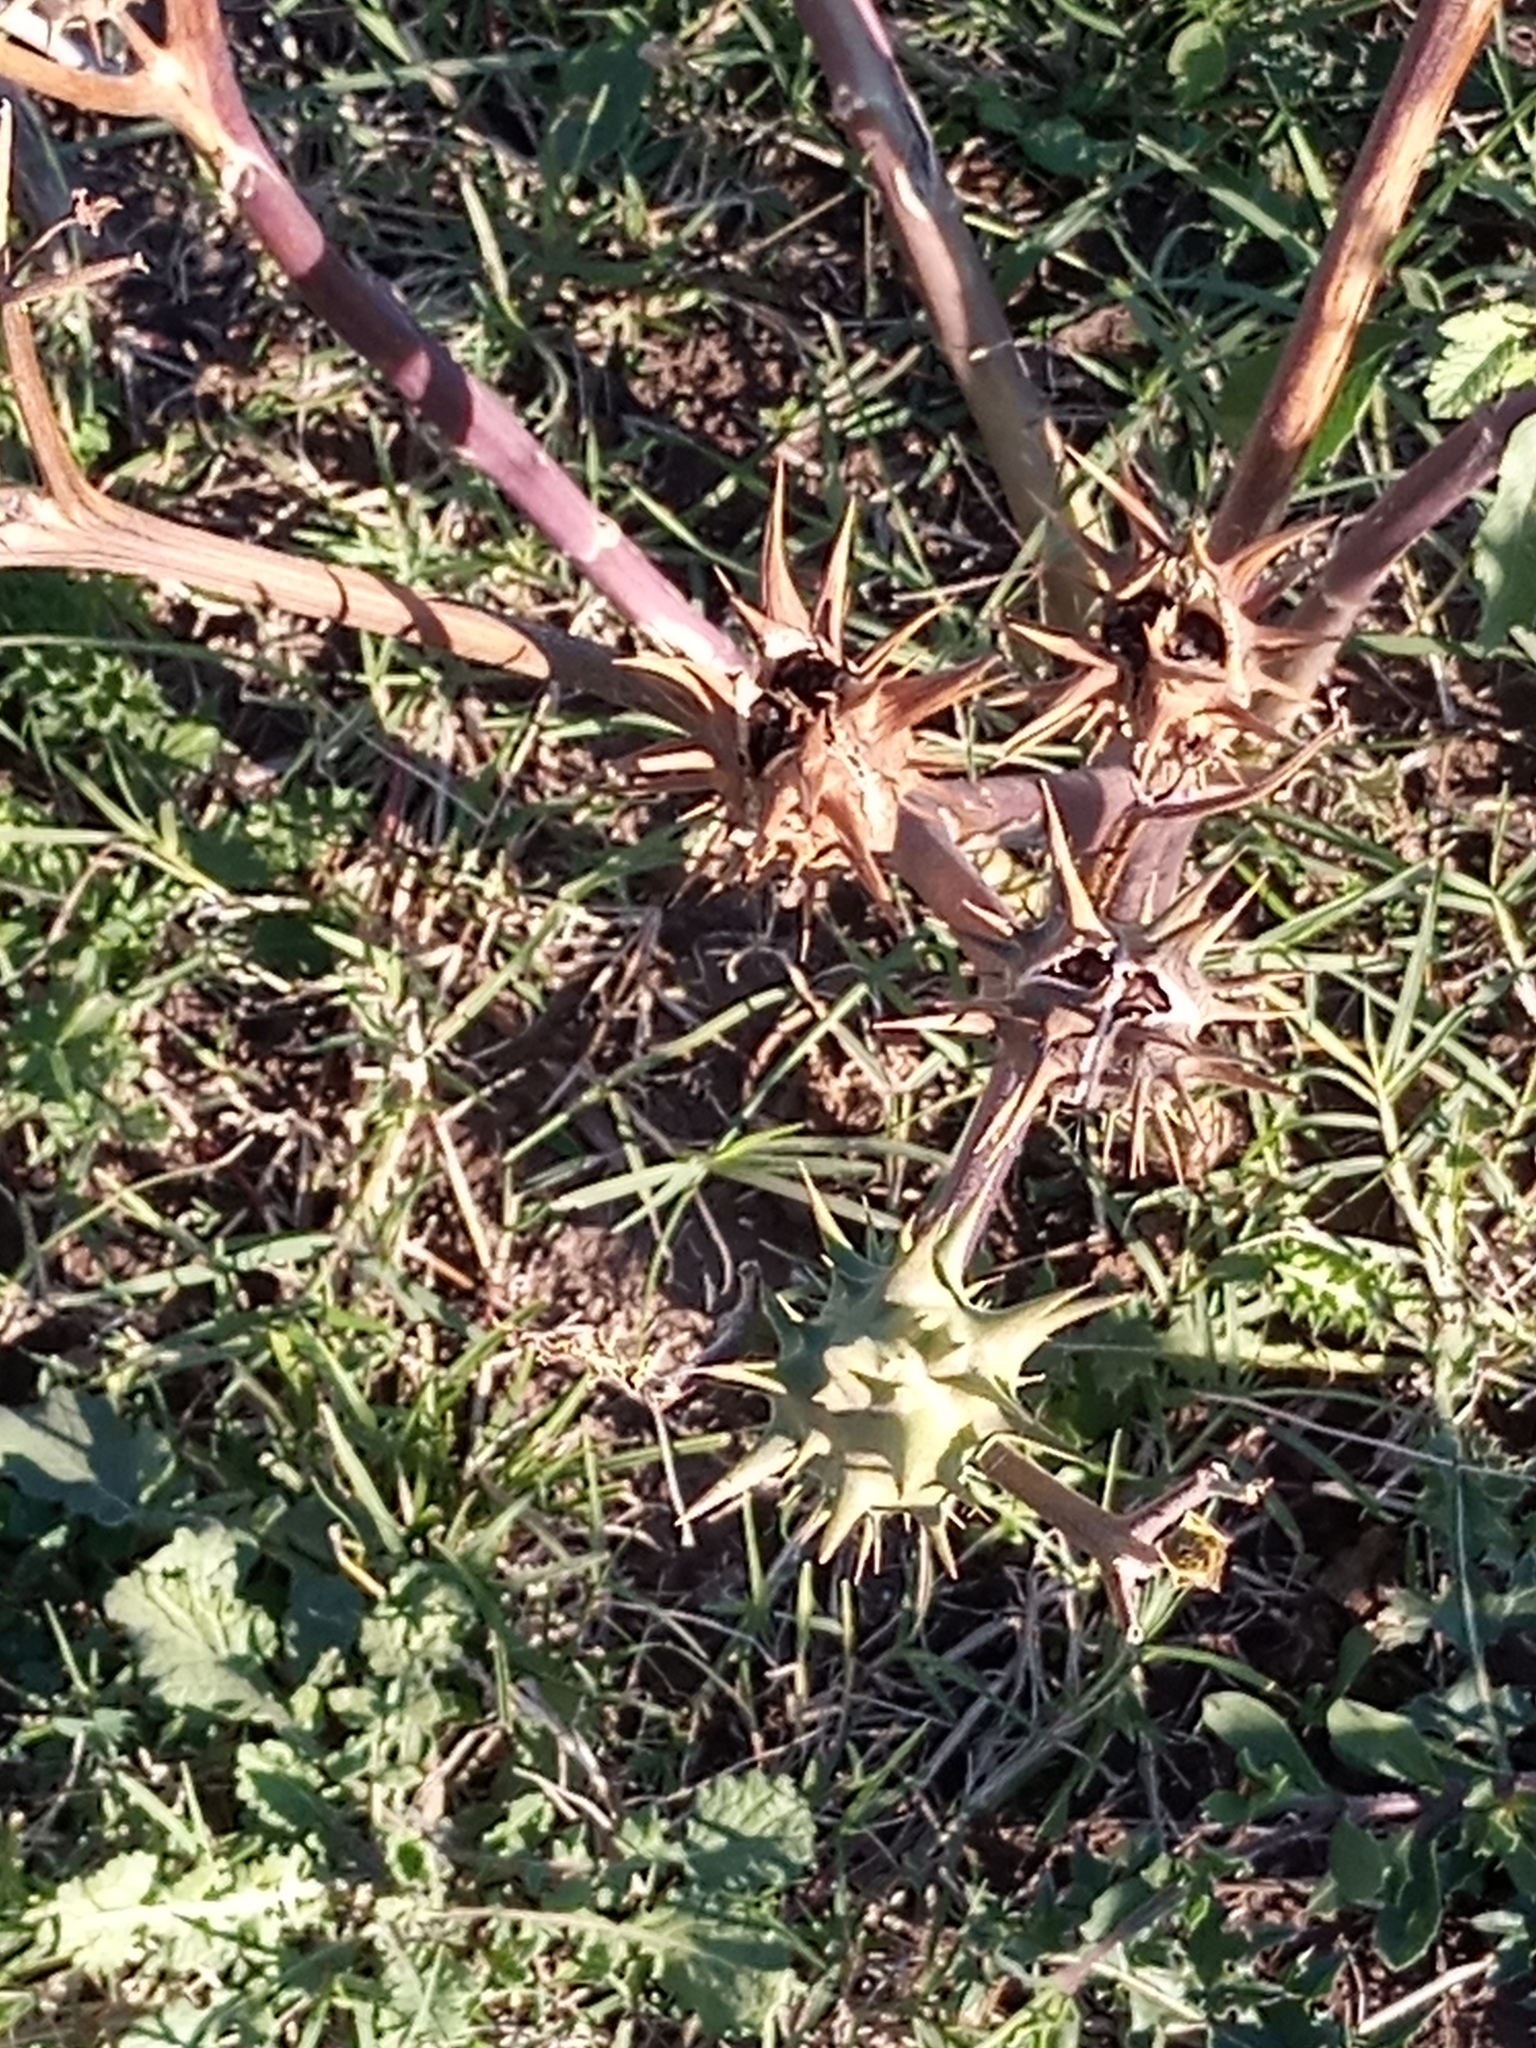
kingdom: Plantae
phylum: Tracheophyta
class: Magnoliopsida
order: Solanales
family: Solanaceae
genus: Datura
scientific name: Datura ferox
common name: Angel's-trumpets
